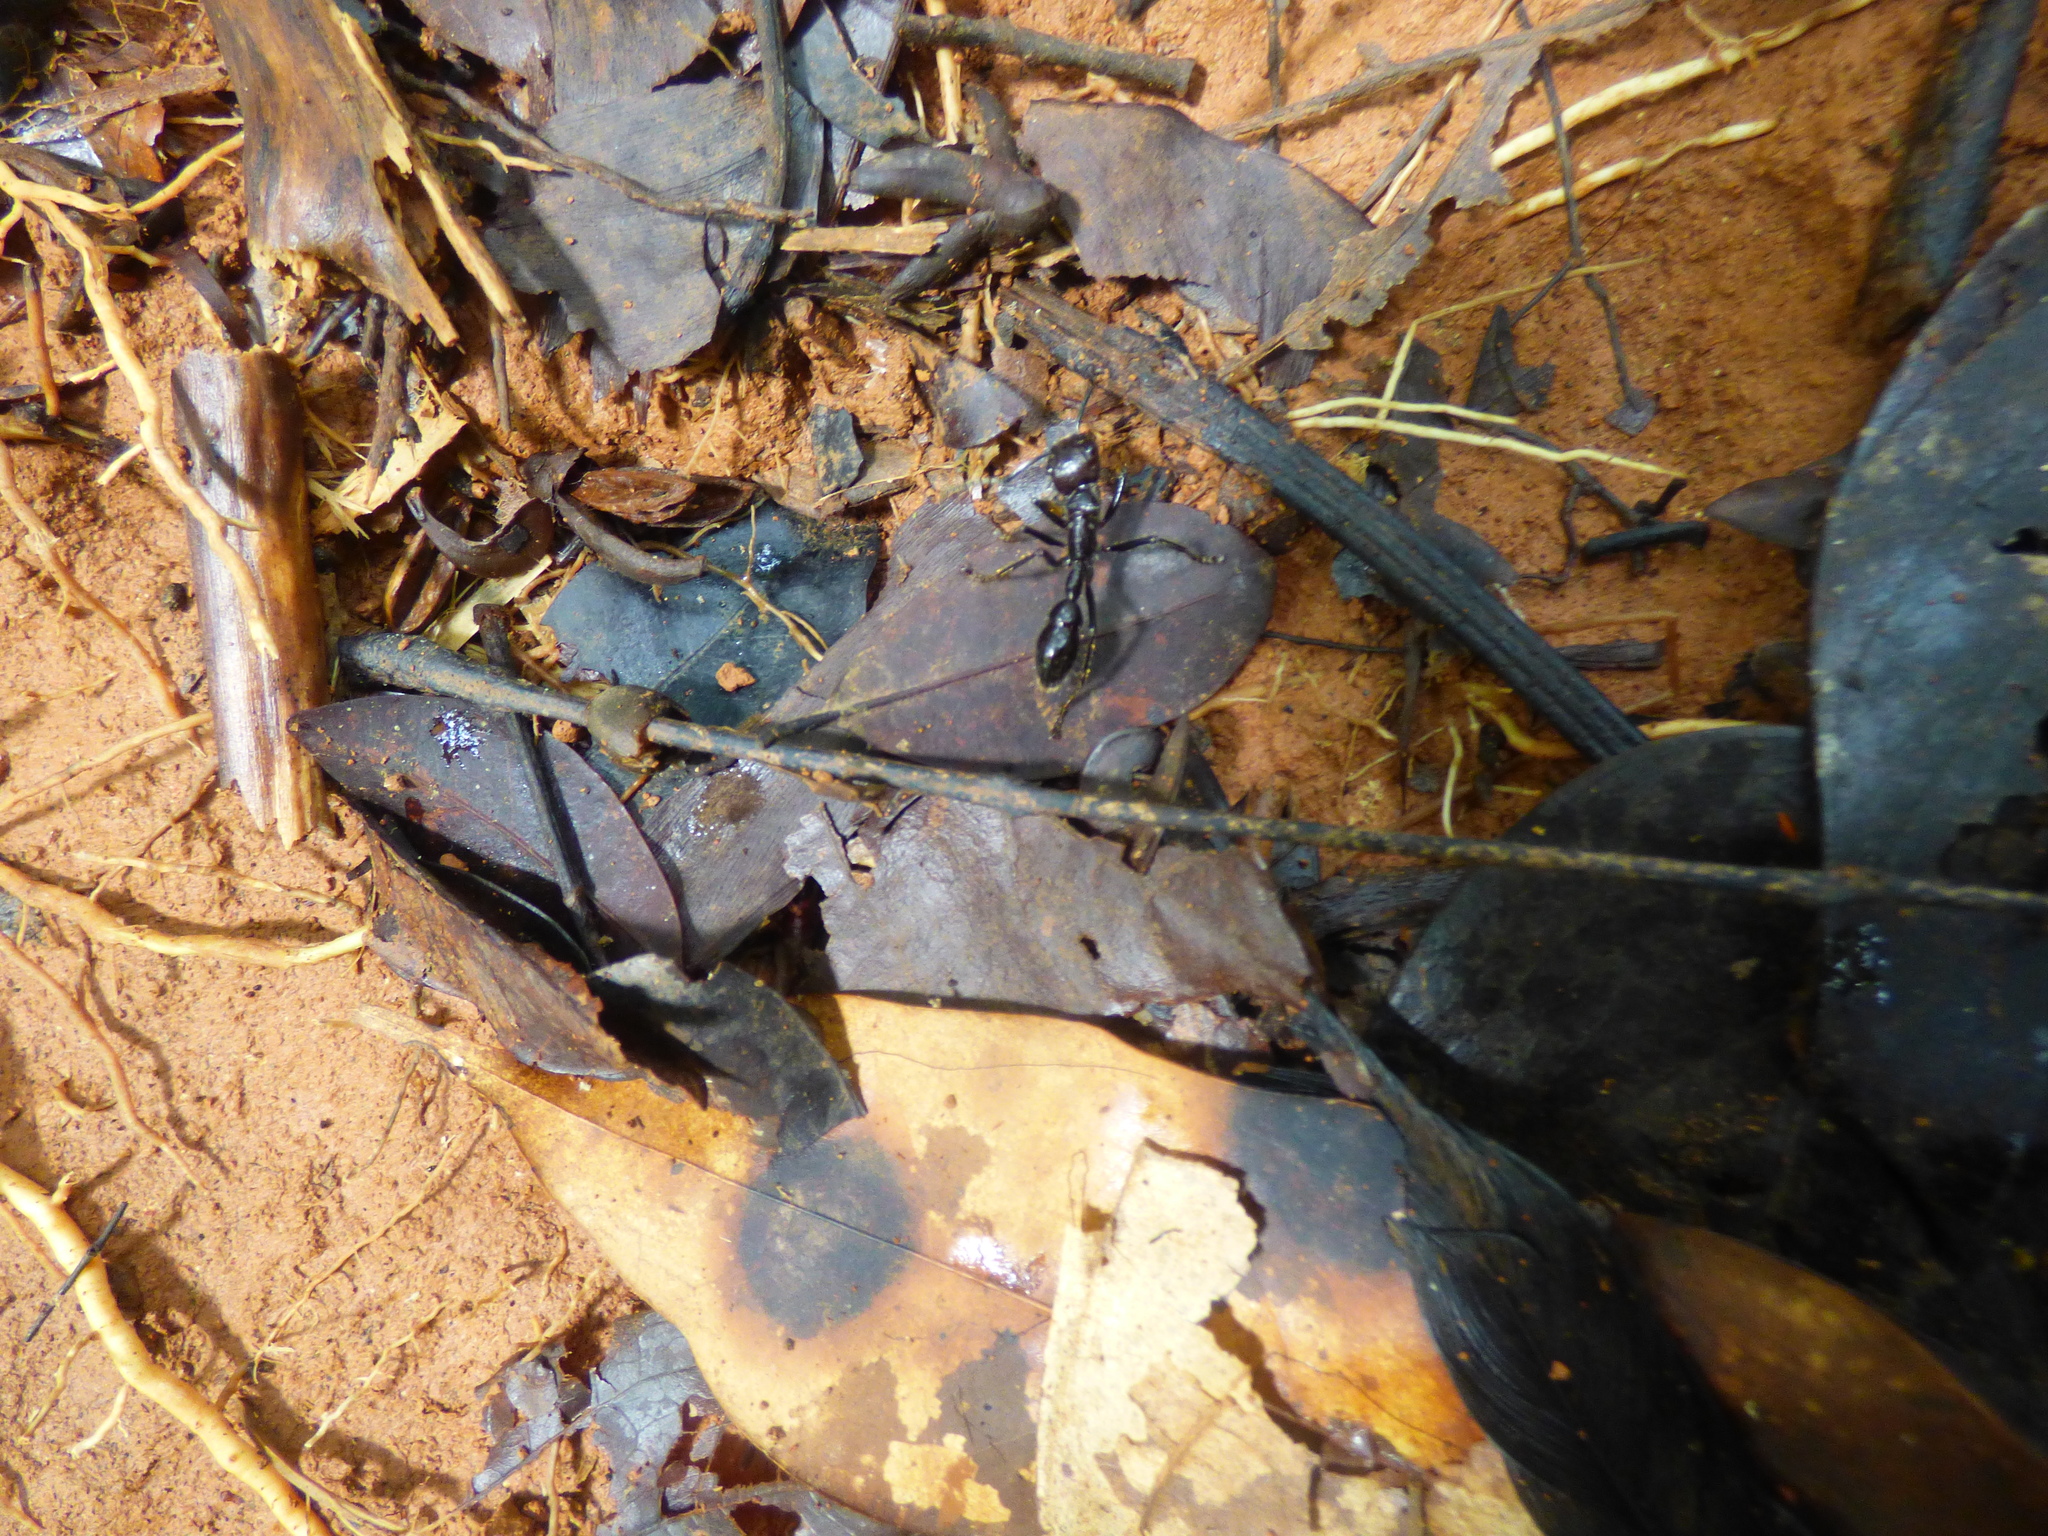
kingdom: Animalia
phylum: Arthropoda
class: Insecta
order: Hymenoptera
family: Formicidae
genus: Paraponera
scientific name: Paraponera clavata
